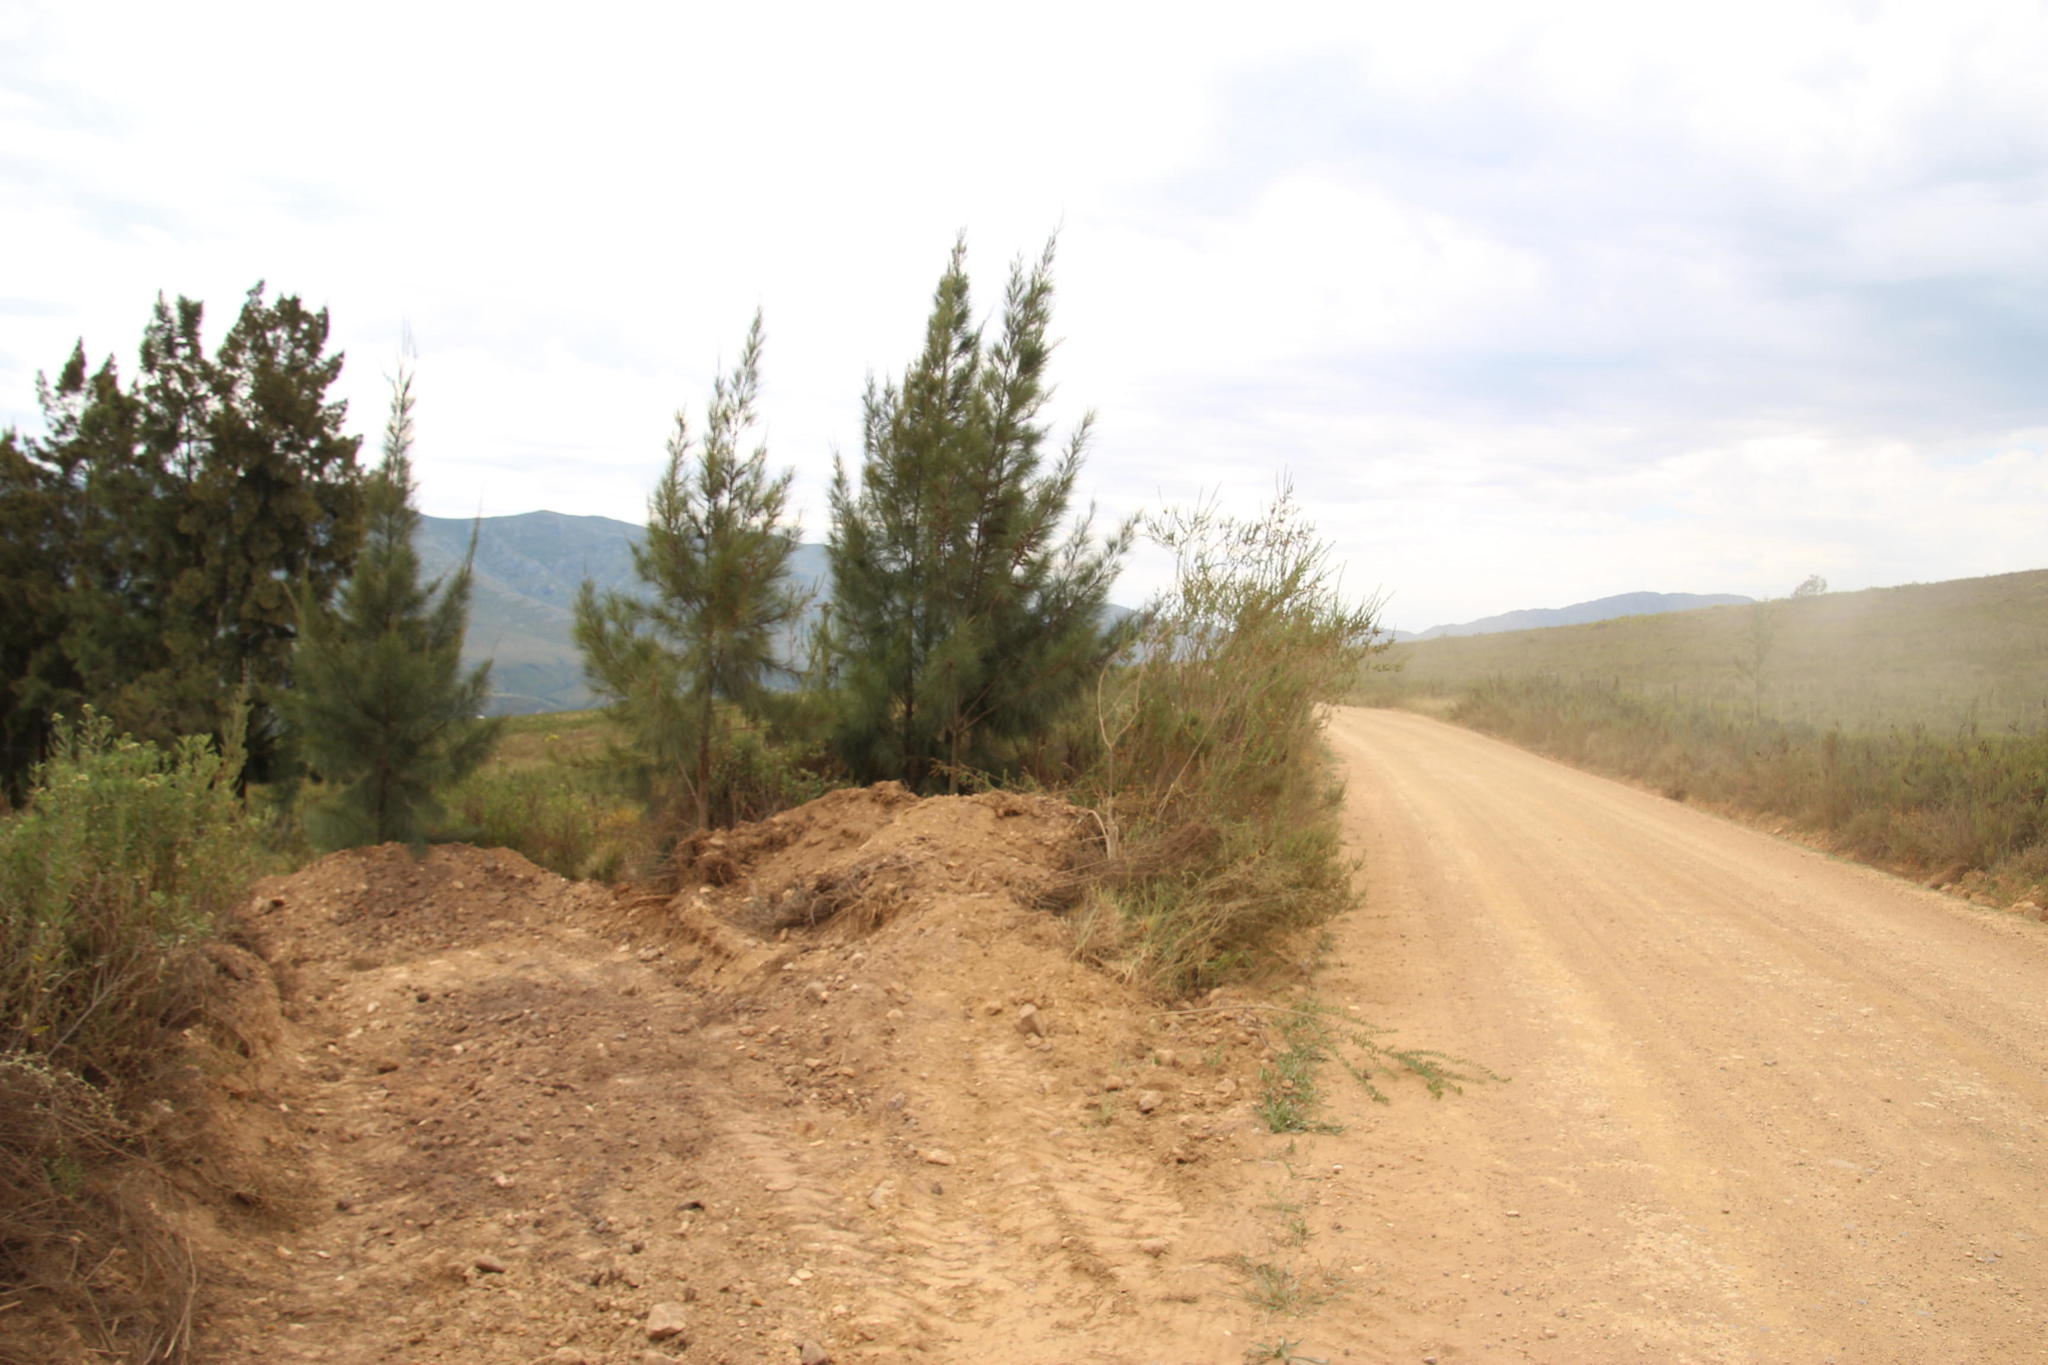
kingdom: Plantae
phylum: Tracheophyta
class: Magnoliopsida
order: Fagales
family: Casuarinaceae
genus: Casuarina
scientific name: Casuarina cunninghamiana
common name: River sheoak
